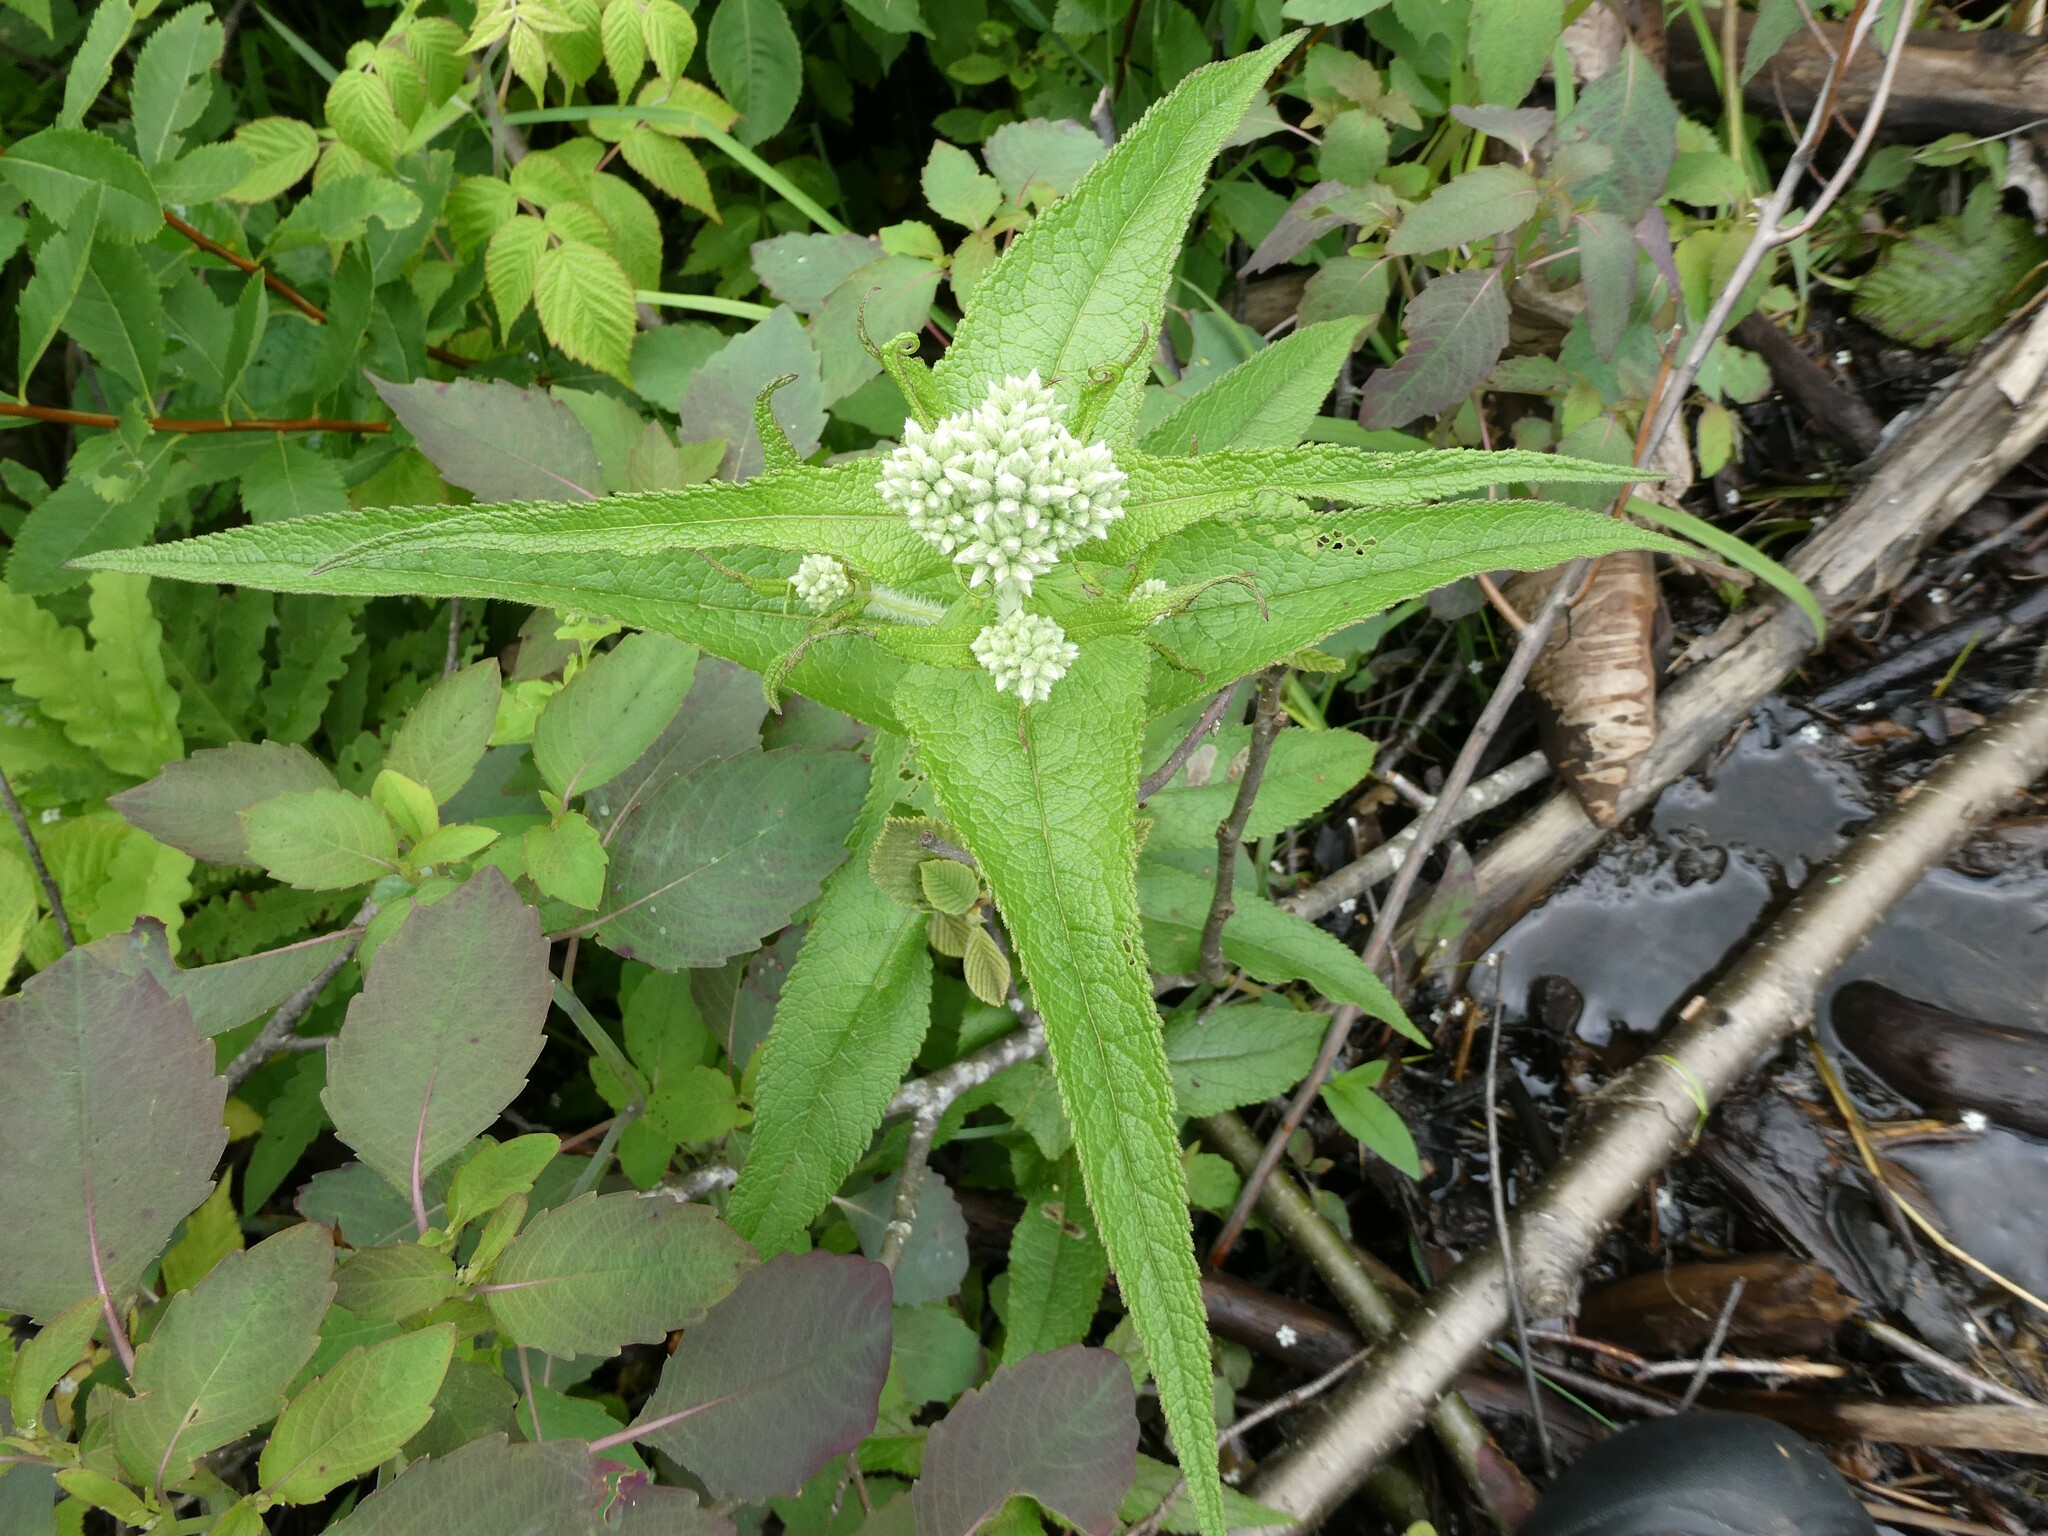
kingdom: Plantae
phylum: Tracheophyta
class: Magnoliopsida
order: Asterales
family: Asteraceae
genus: Eupatorium
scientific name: Eupatorium perfoliatum
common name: Boneset
